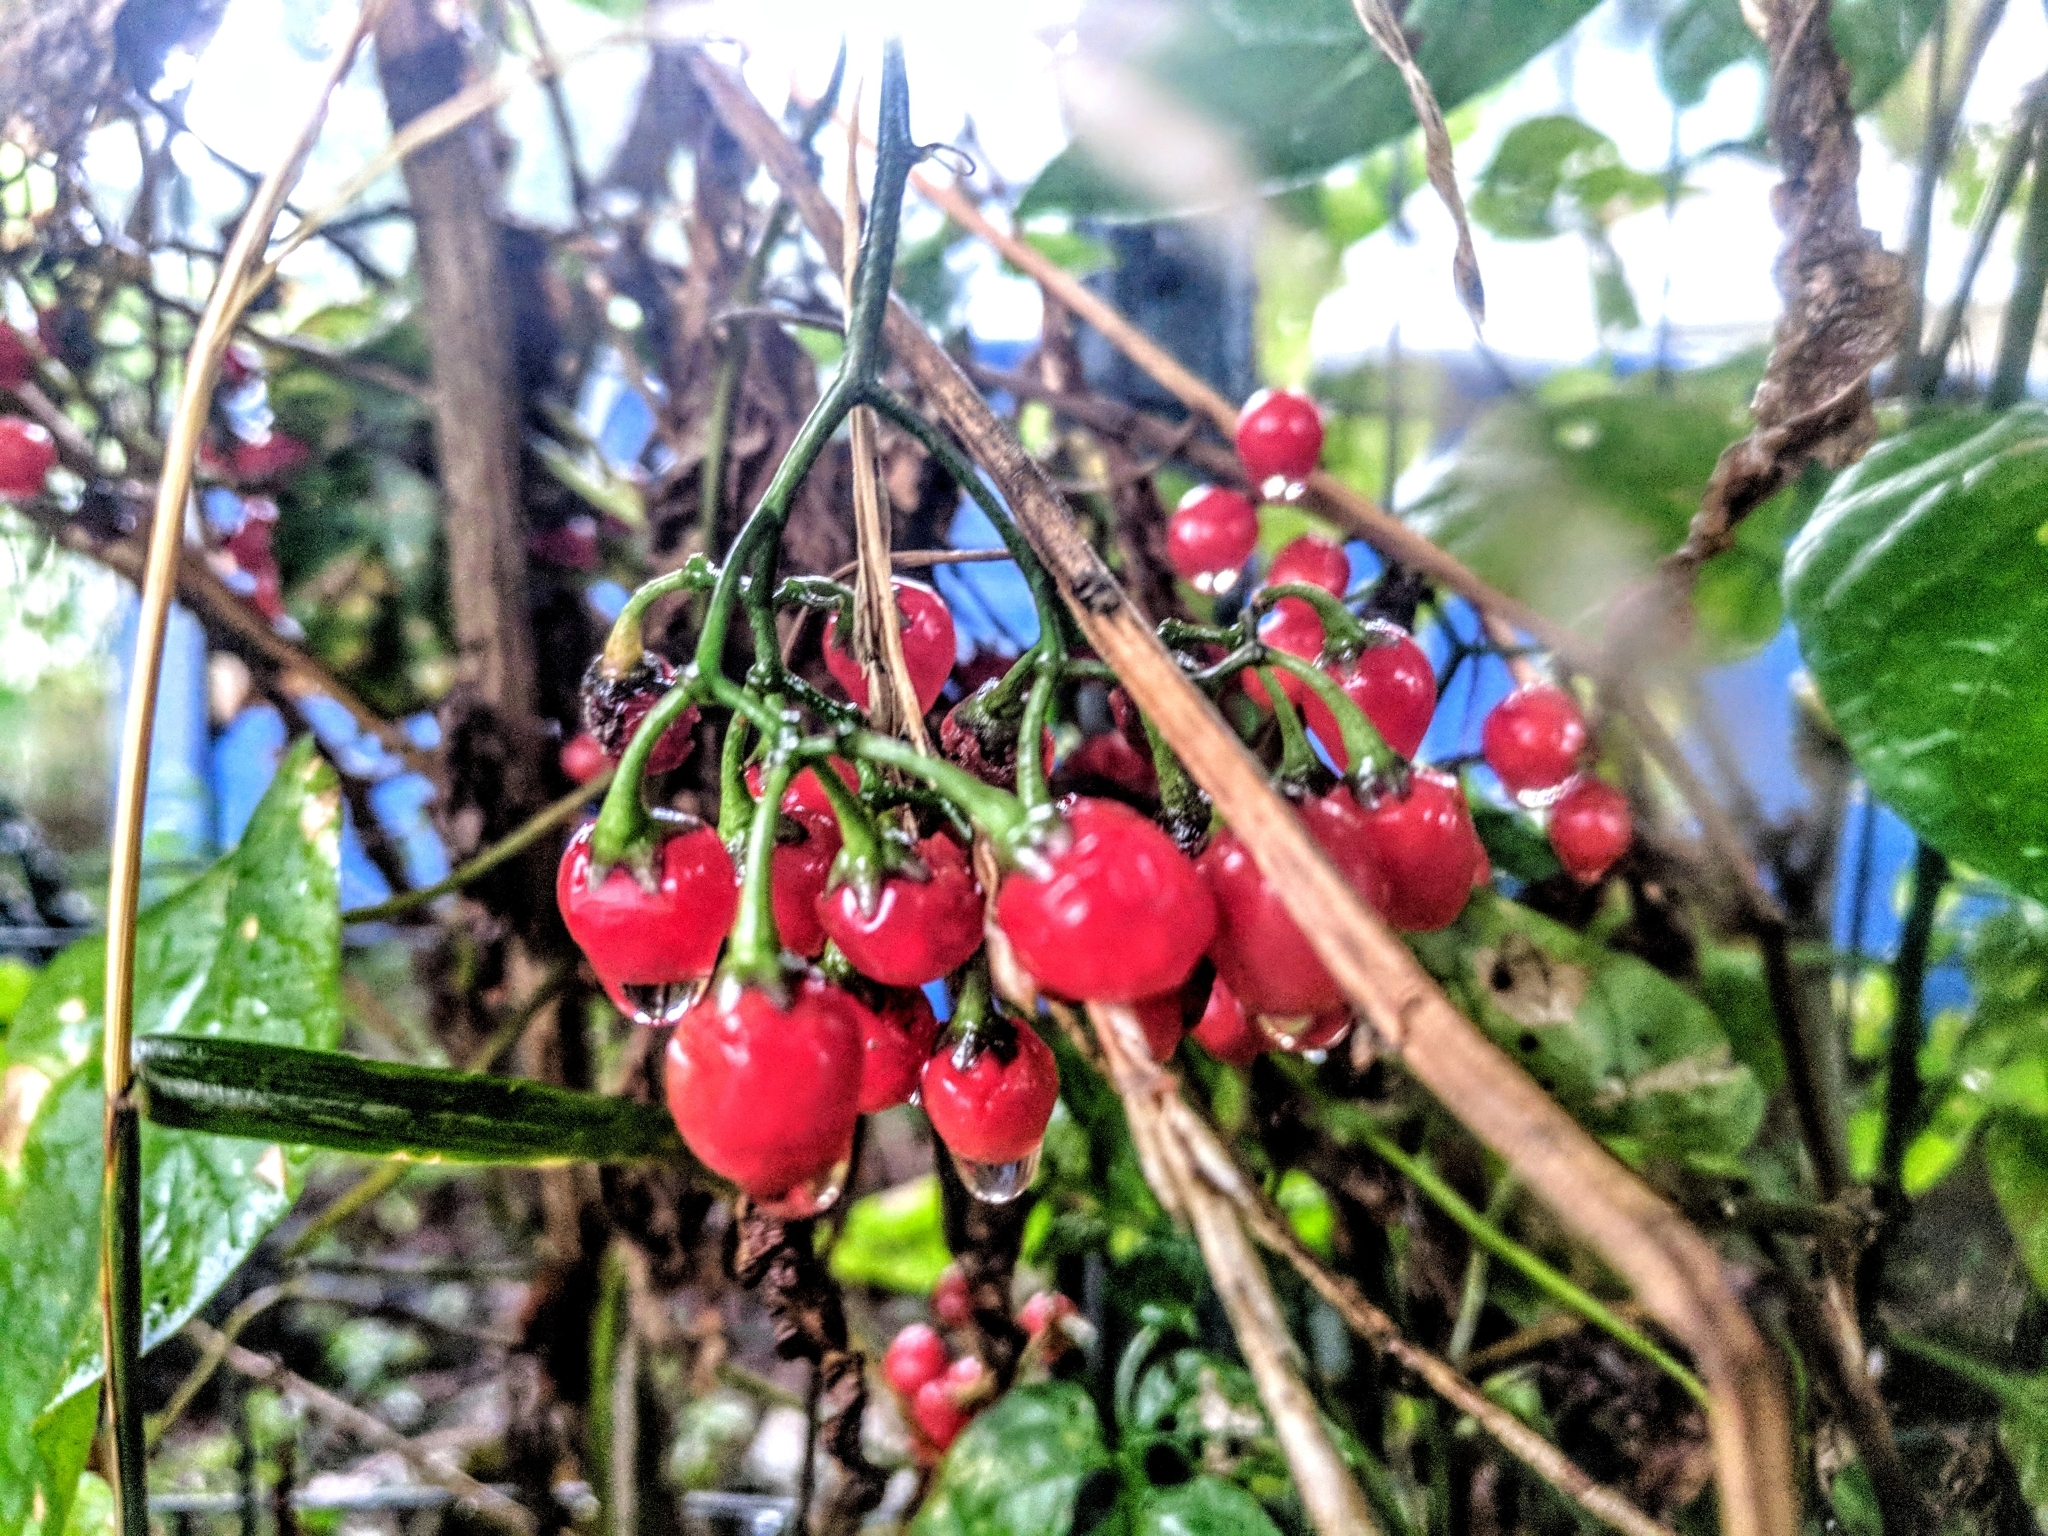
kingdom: Plantae
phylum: Tracheophyta
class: Magnoliopsida
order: Solanales
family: Solanaceae
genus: Solanum
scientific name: Solanum dulcamara
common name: Climbing nightshade
